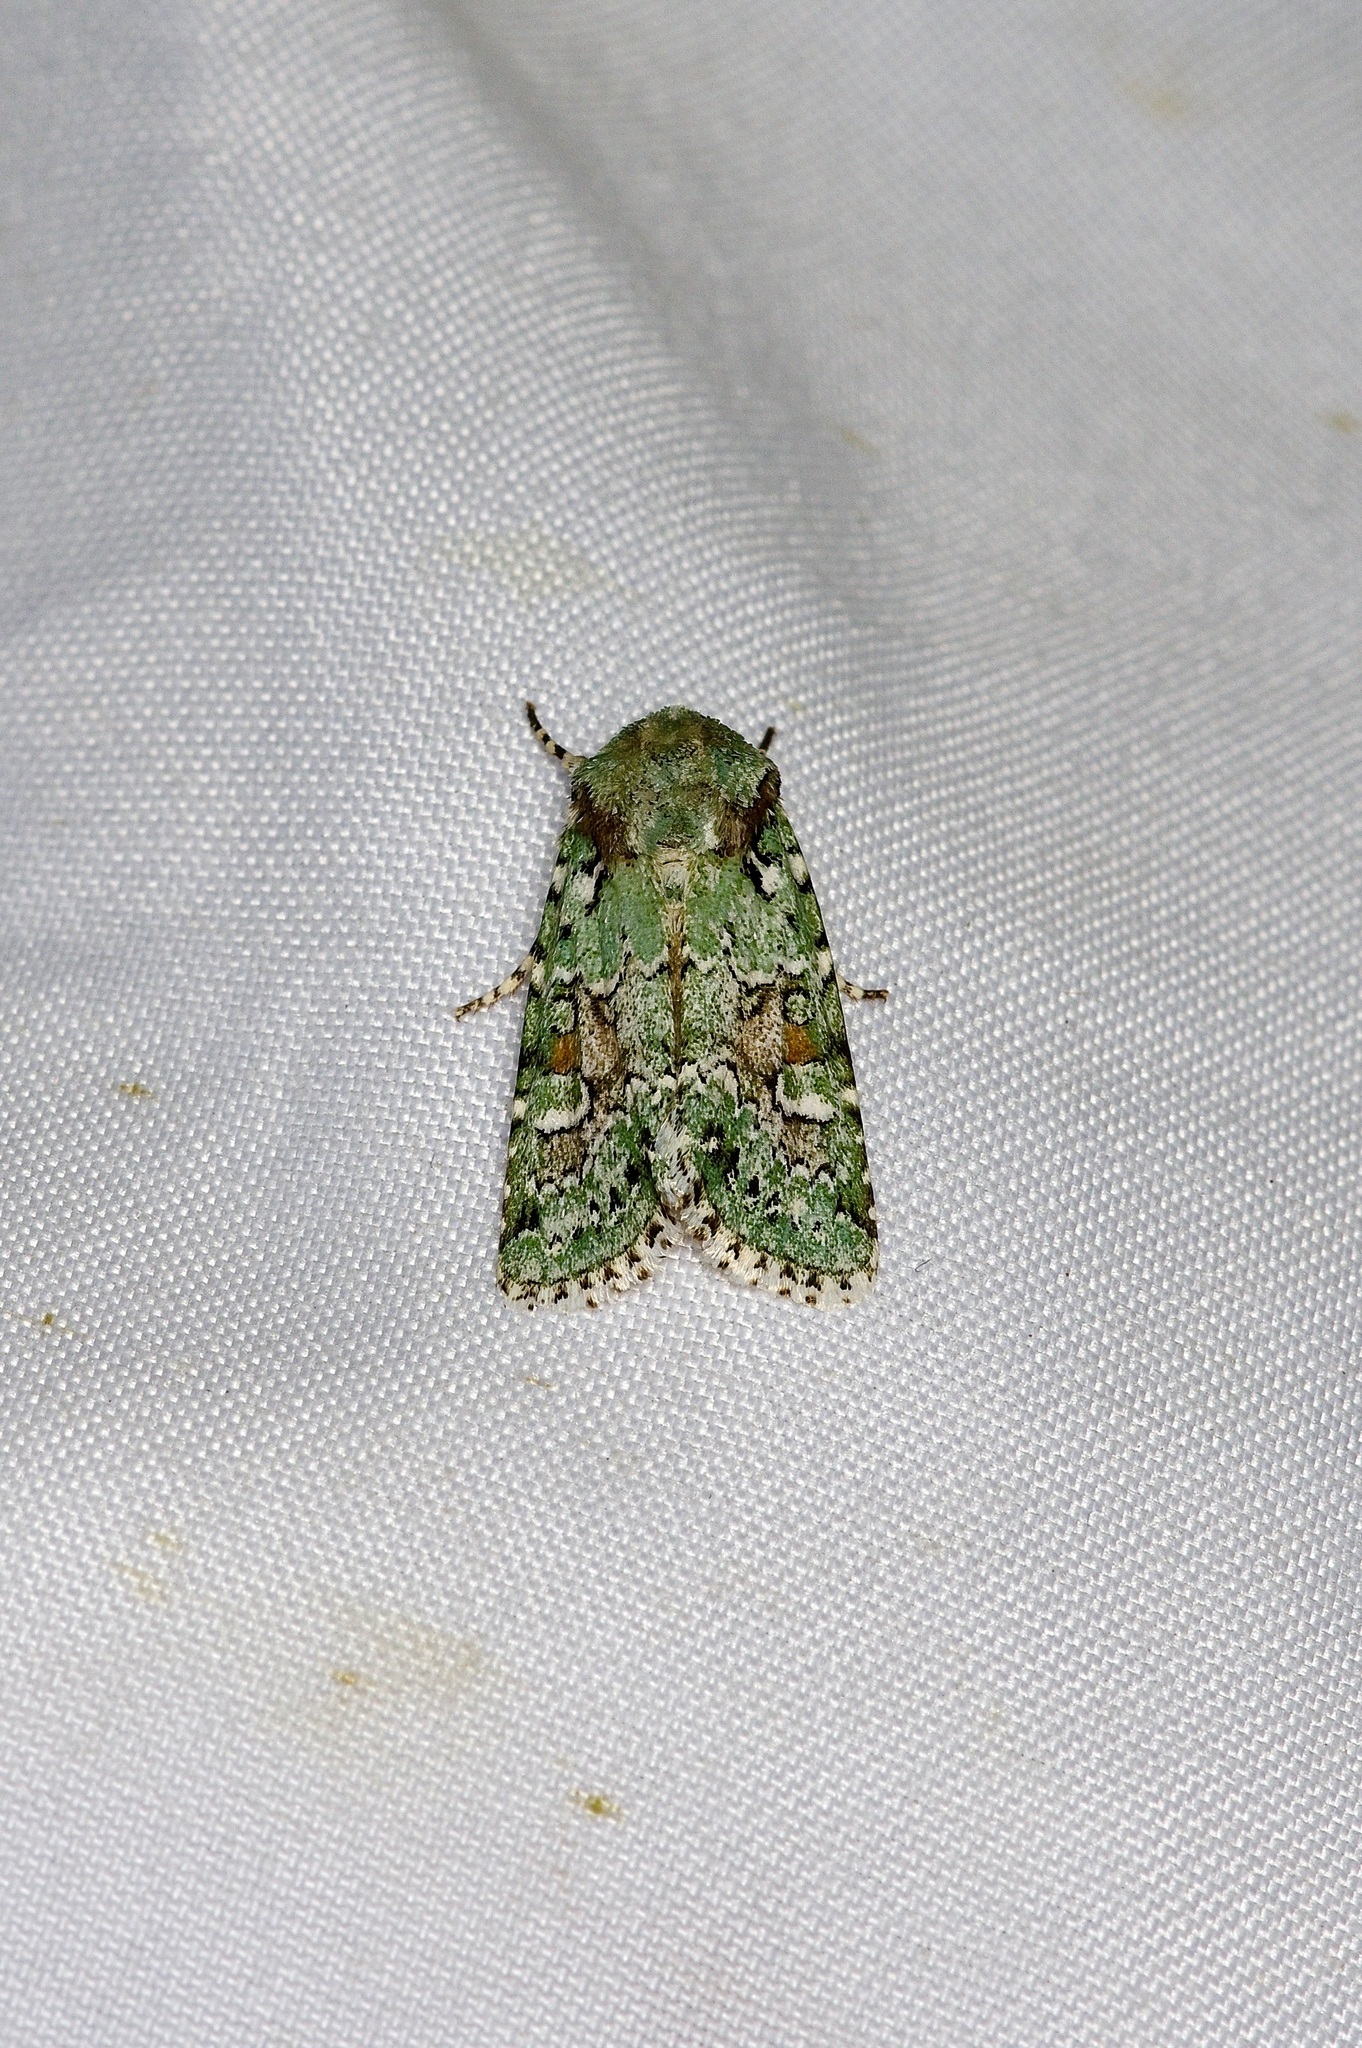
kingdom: Animalia
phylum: Arthropoda
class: Insecta
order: Lepidoptera
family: Noctuidae
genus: Lacinipolia
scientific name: Lacinipolia laudabilis
